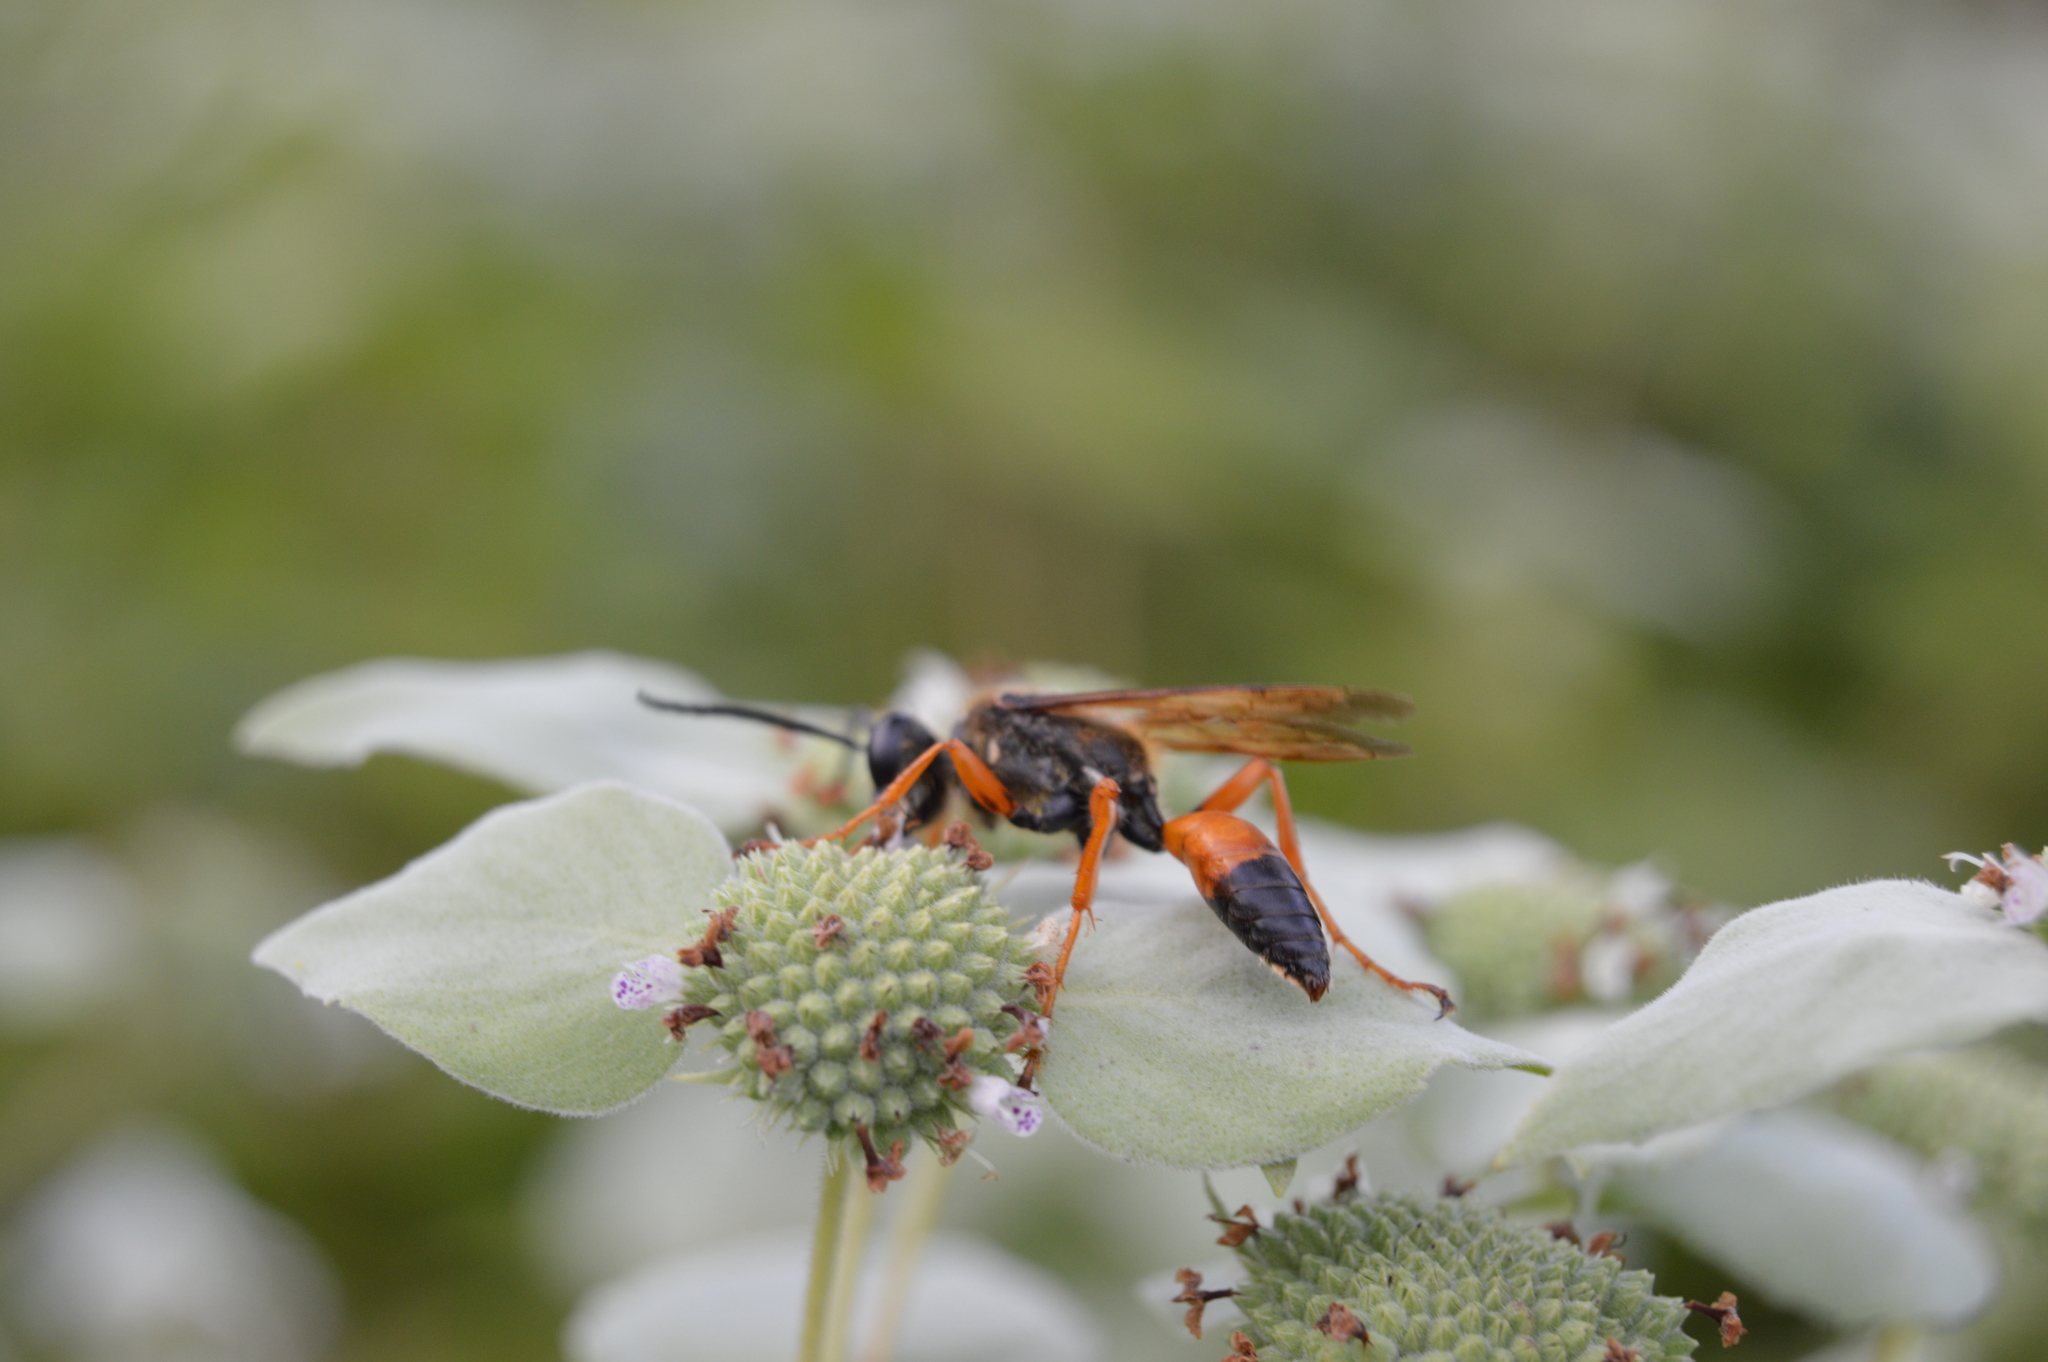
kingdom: Animalia
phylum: Arthropoda
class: Insecta
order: Hymenoptera
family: Sphecidae
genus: Sphex
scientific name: Sphex ichneumoneus
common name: Great golden digger wasp
